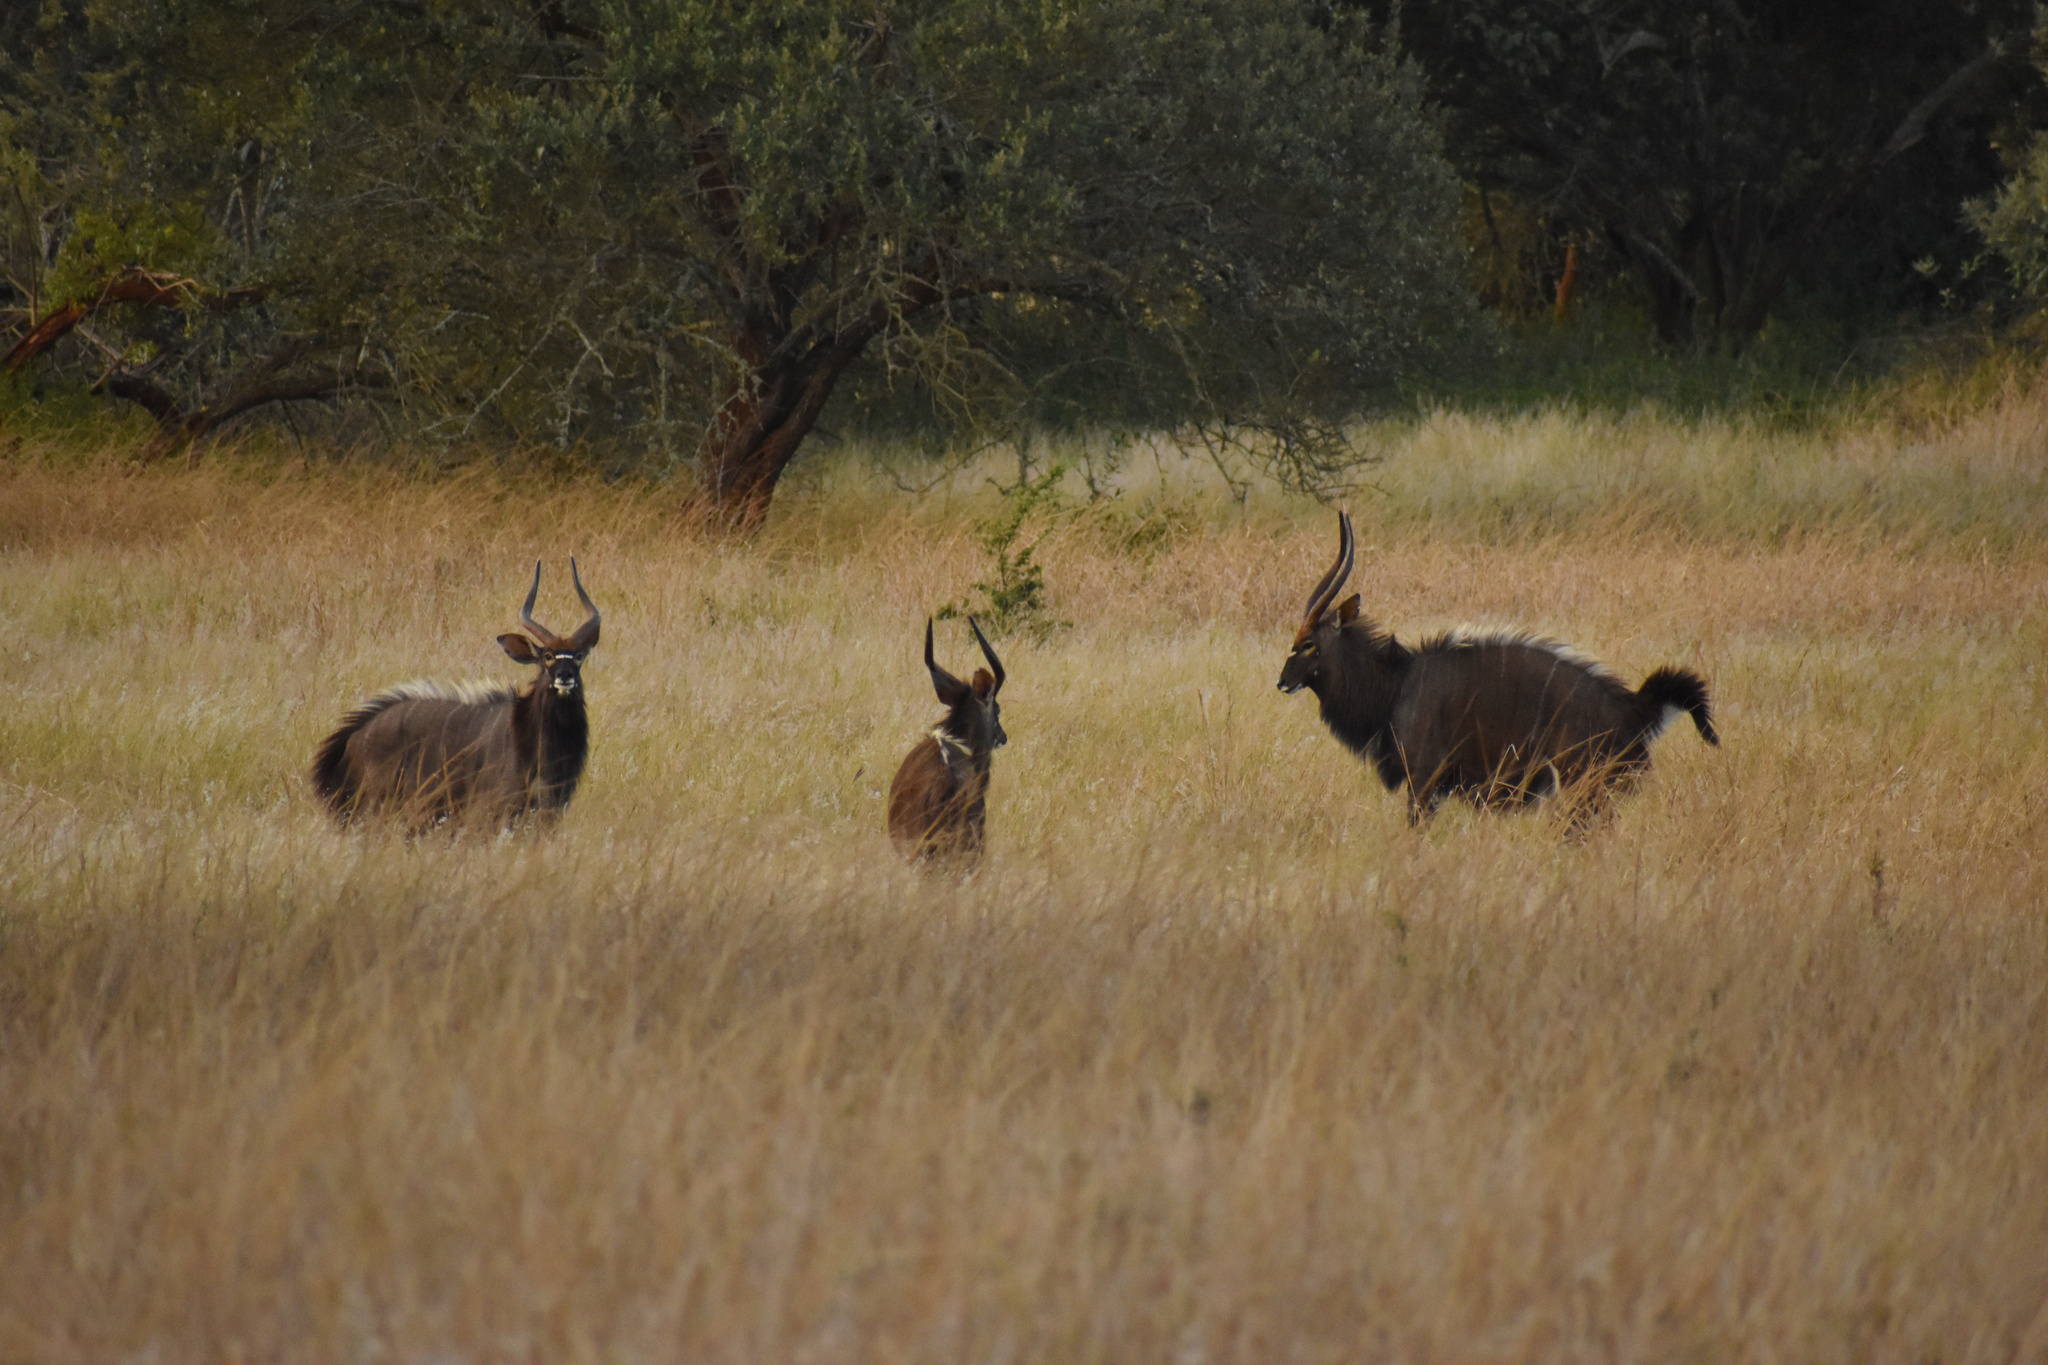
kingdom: Animalia
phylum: Chordata
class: Mammalia
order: Artiodactyla
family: Bovidae
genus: Tragelaphus
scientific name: Tragelaphus angasii
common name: Nyala
